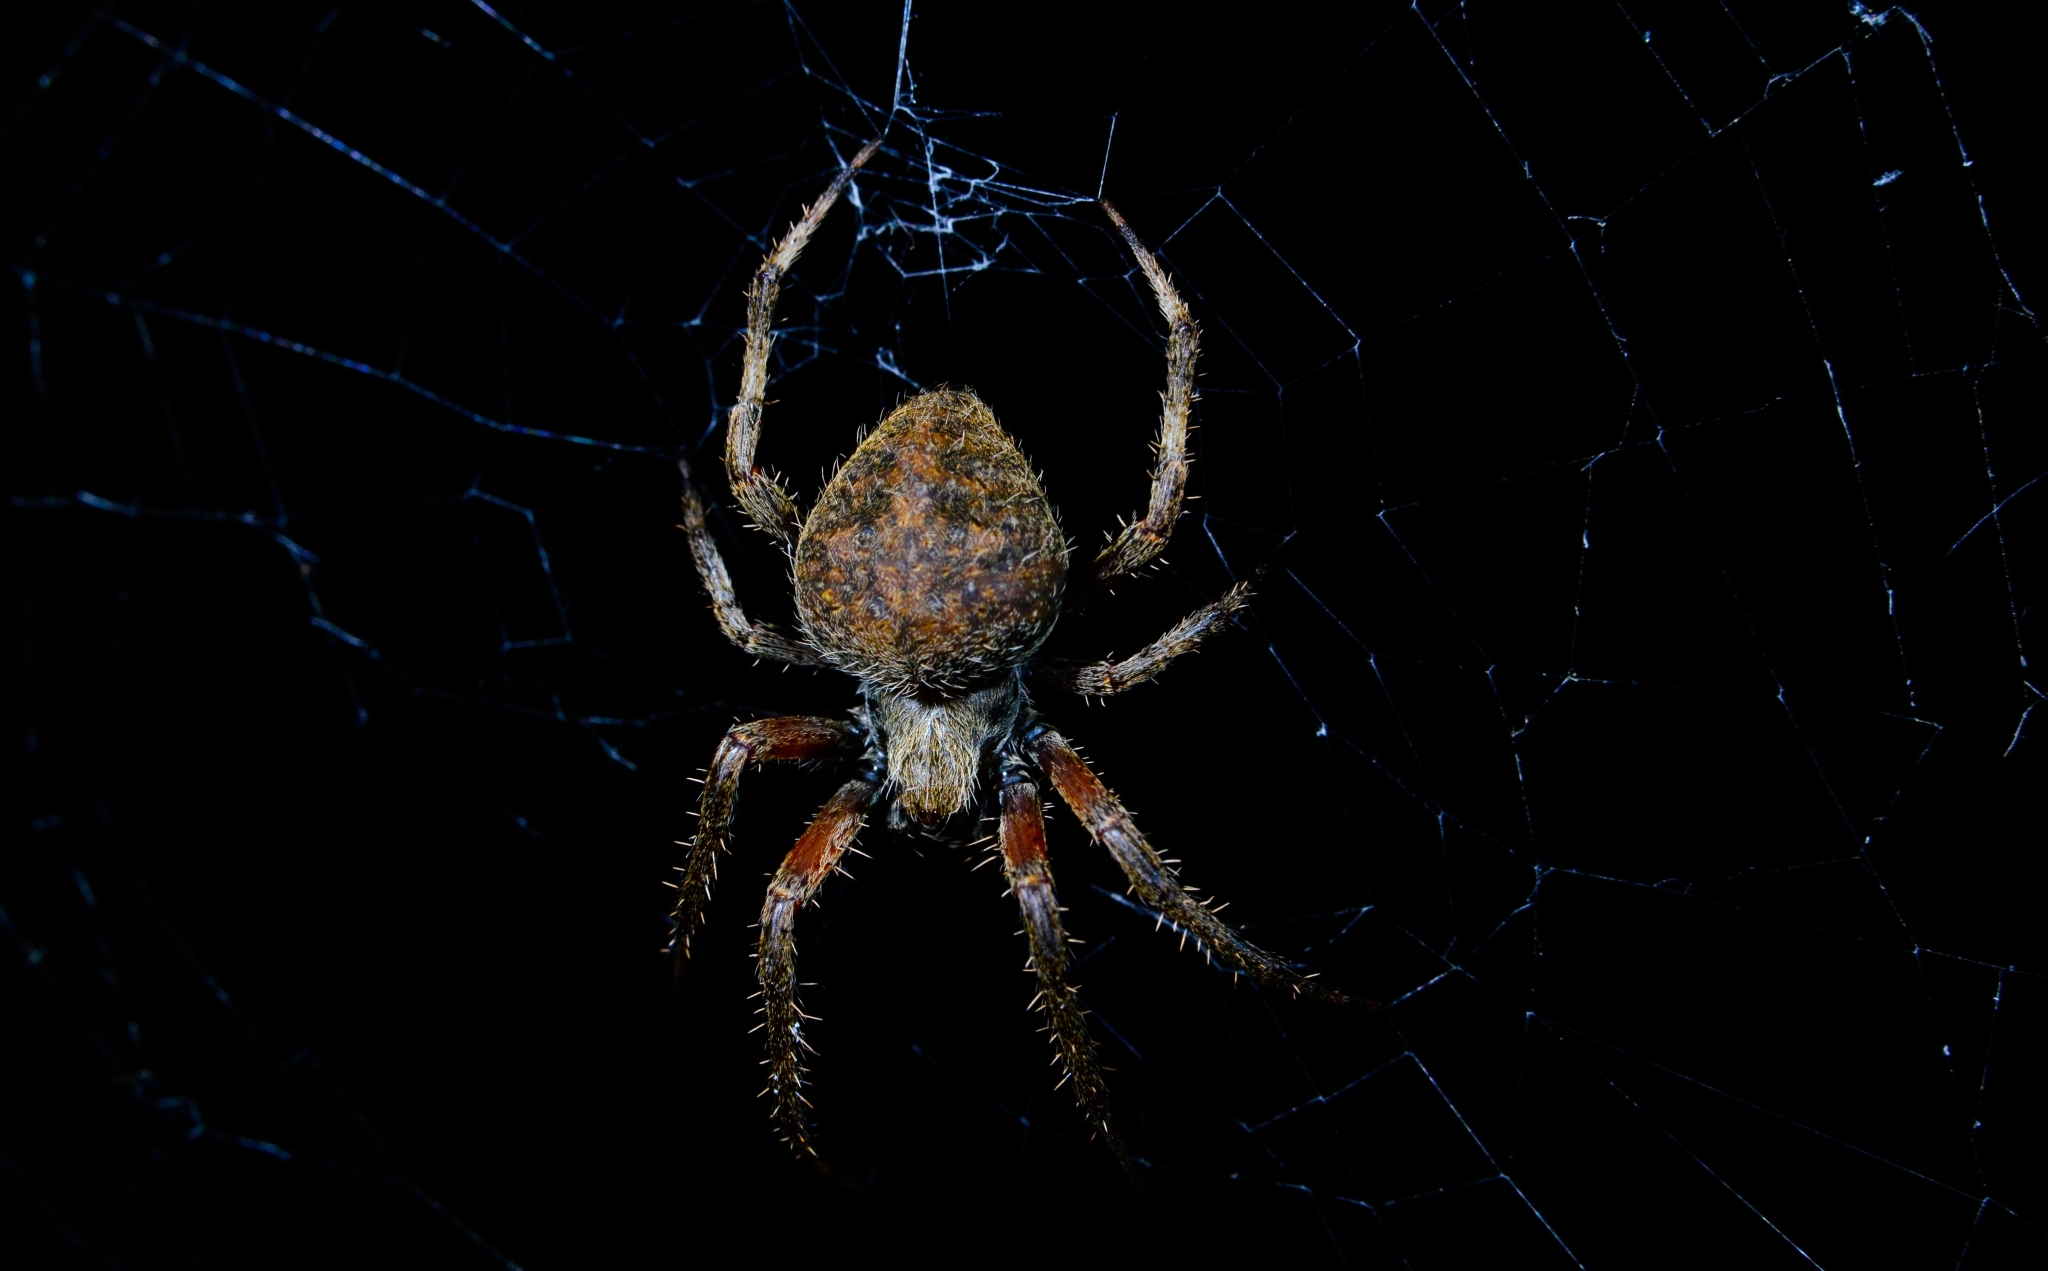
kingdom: Animalia
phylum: Arthropoda
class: Arachnida
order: Araneae
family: Araneidae
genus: Neoscona
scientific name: Neoscona crucifera
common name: Spotted orbweaver
